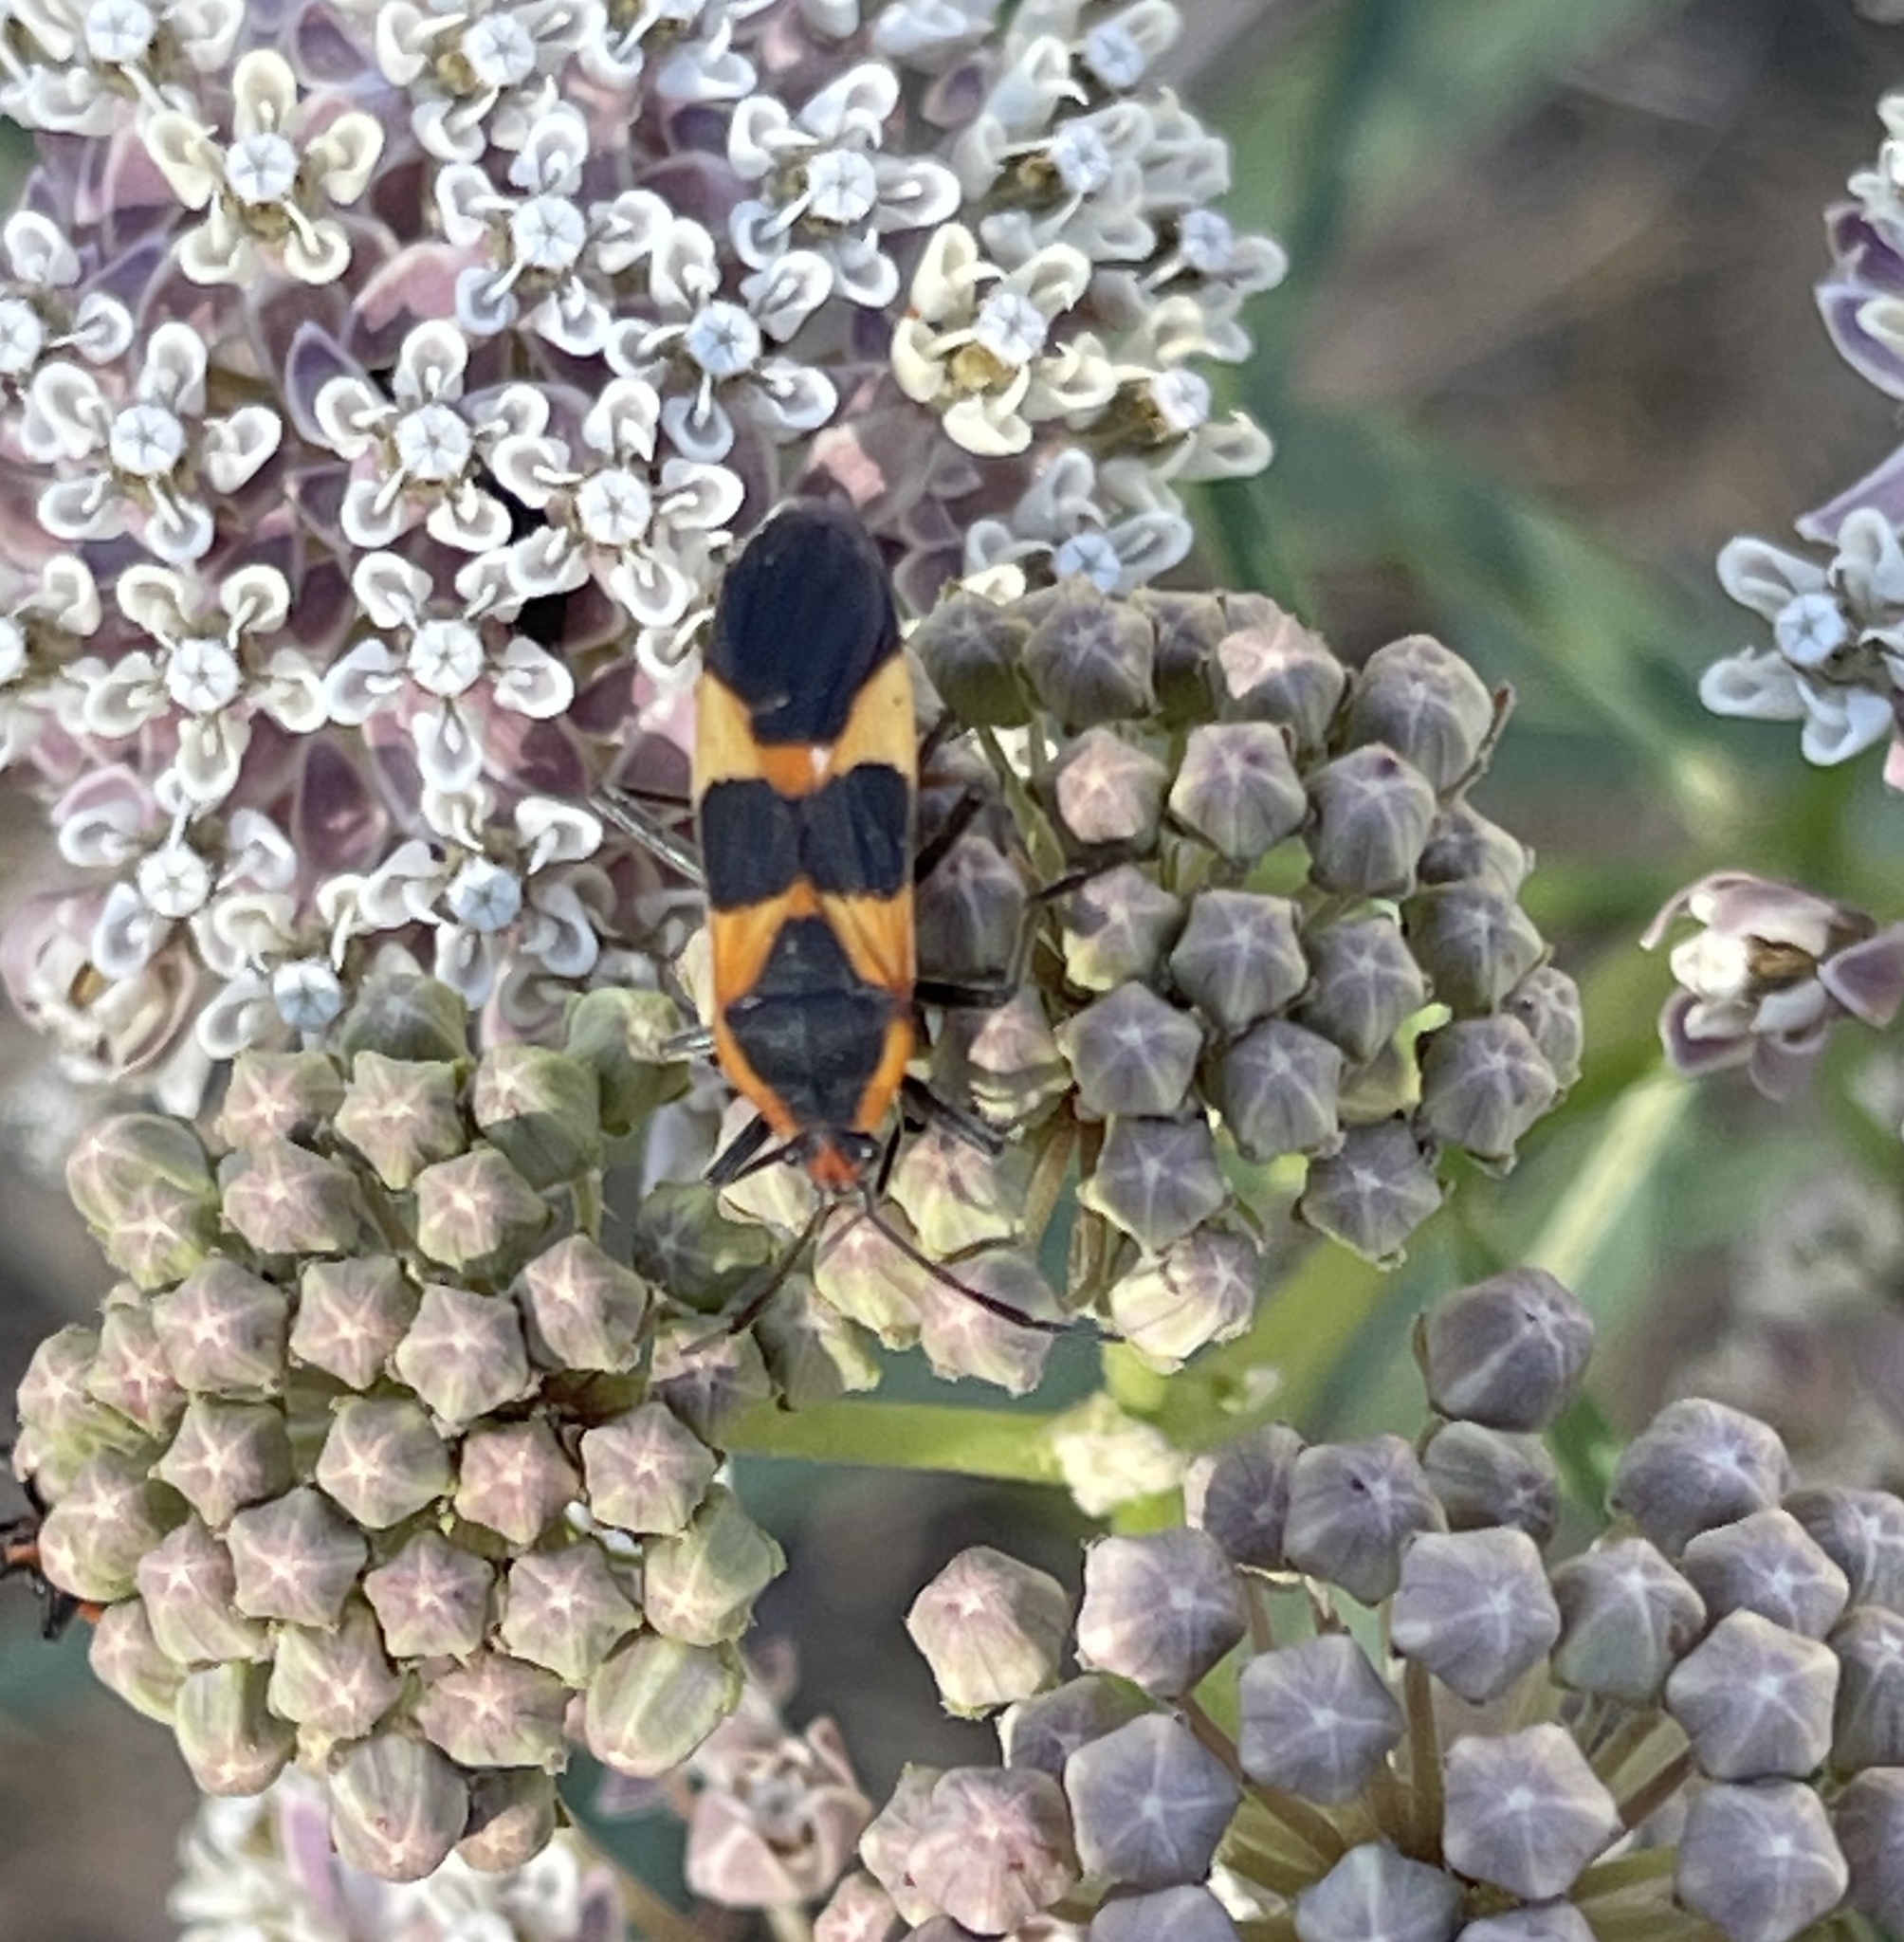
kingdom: Animalia
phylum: Arthropoda
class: Insecta
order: Hemiptera
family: Lygaeidae
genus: Oncopeltus
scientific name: Oncopeltus fasciatus
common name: Large milkweed bug
